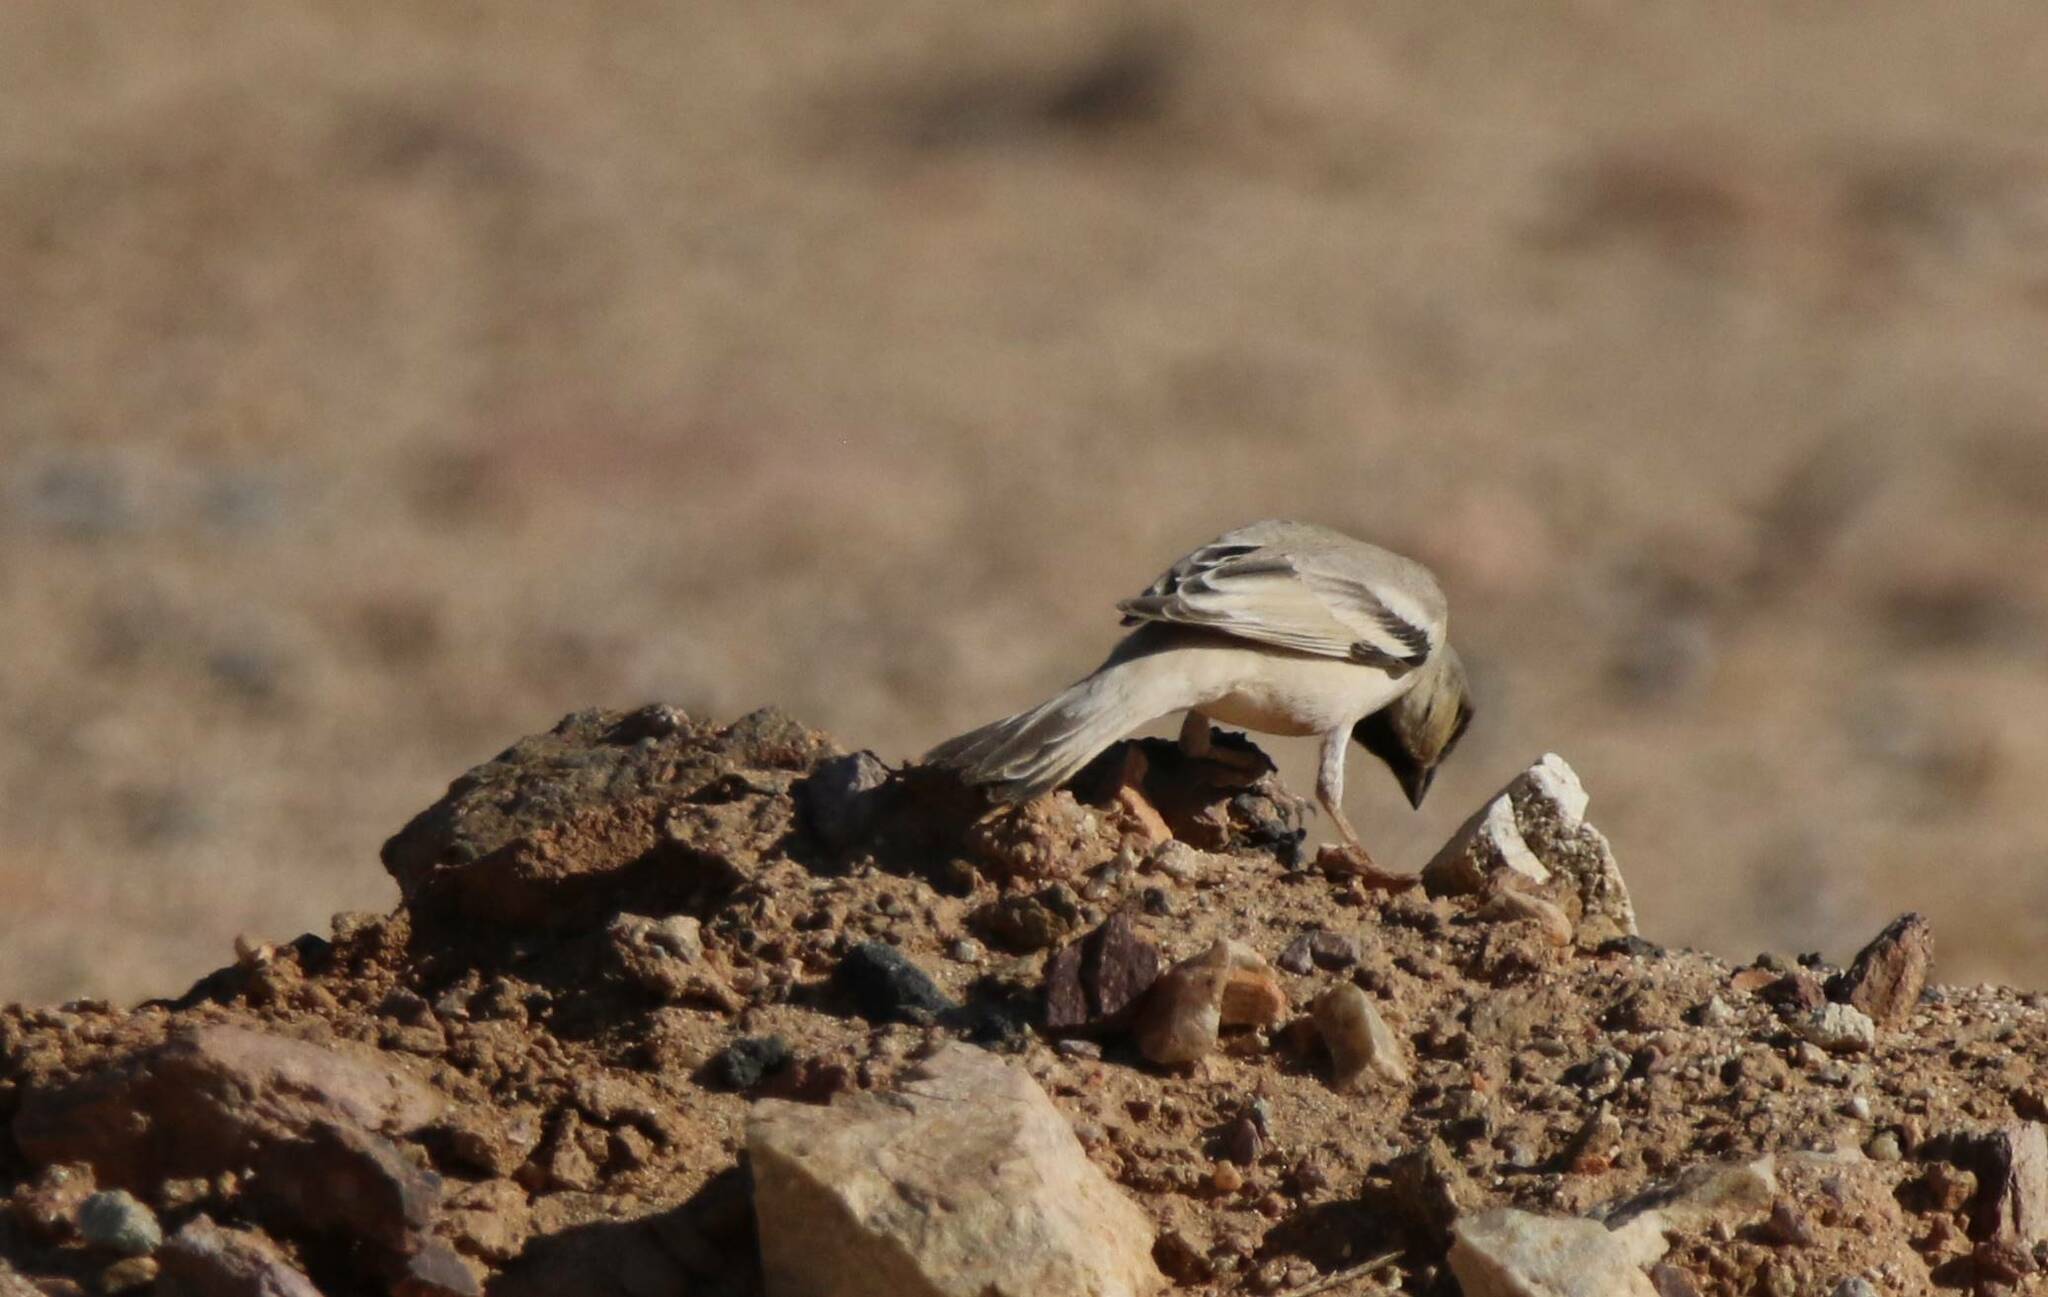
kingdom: Animalia
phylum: Chordata
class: Aves
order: Passeriformes
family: Passeridae
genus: Passer
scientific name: Passer simplex
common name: Desert sparrow
